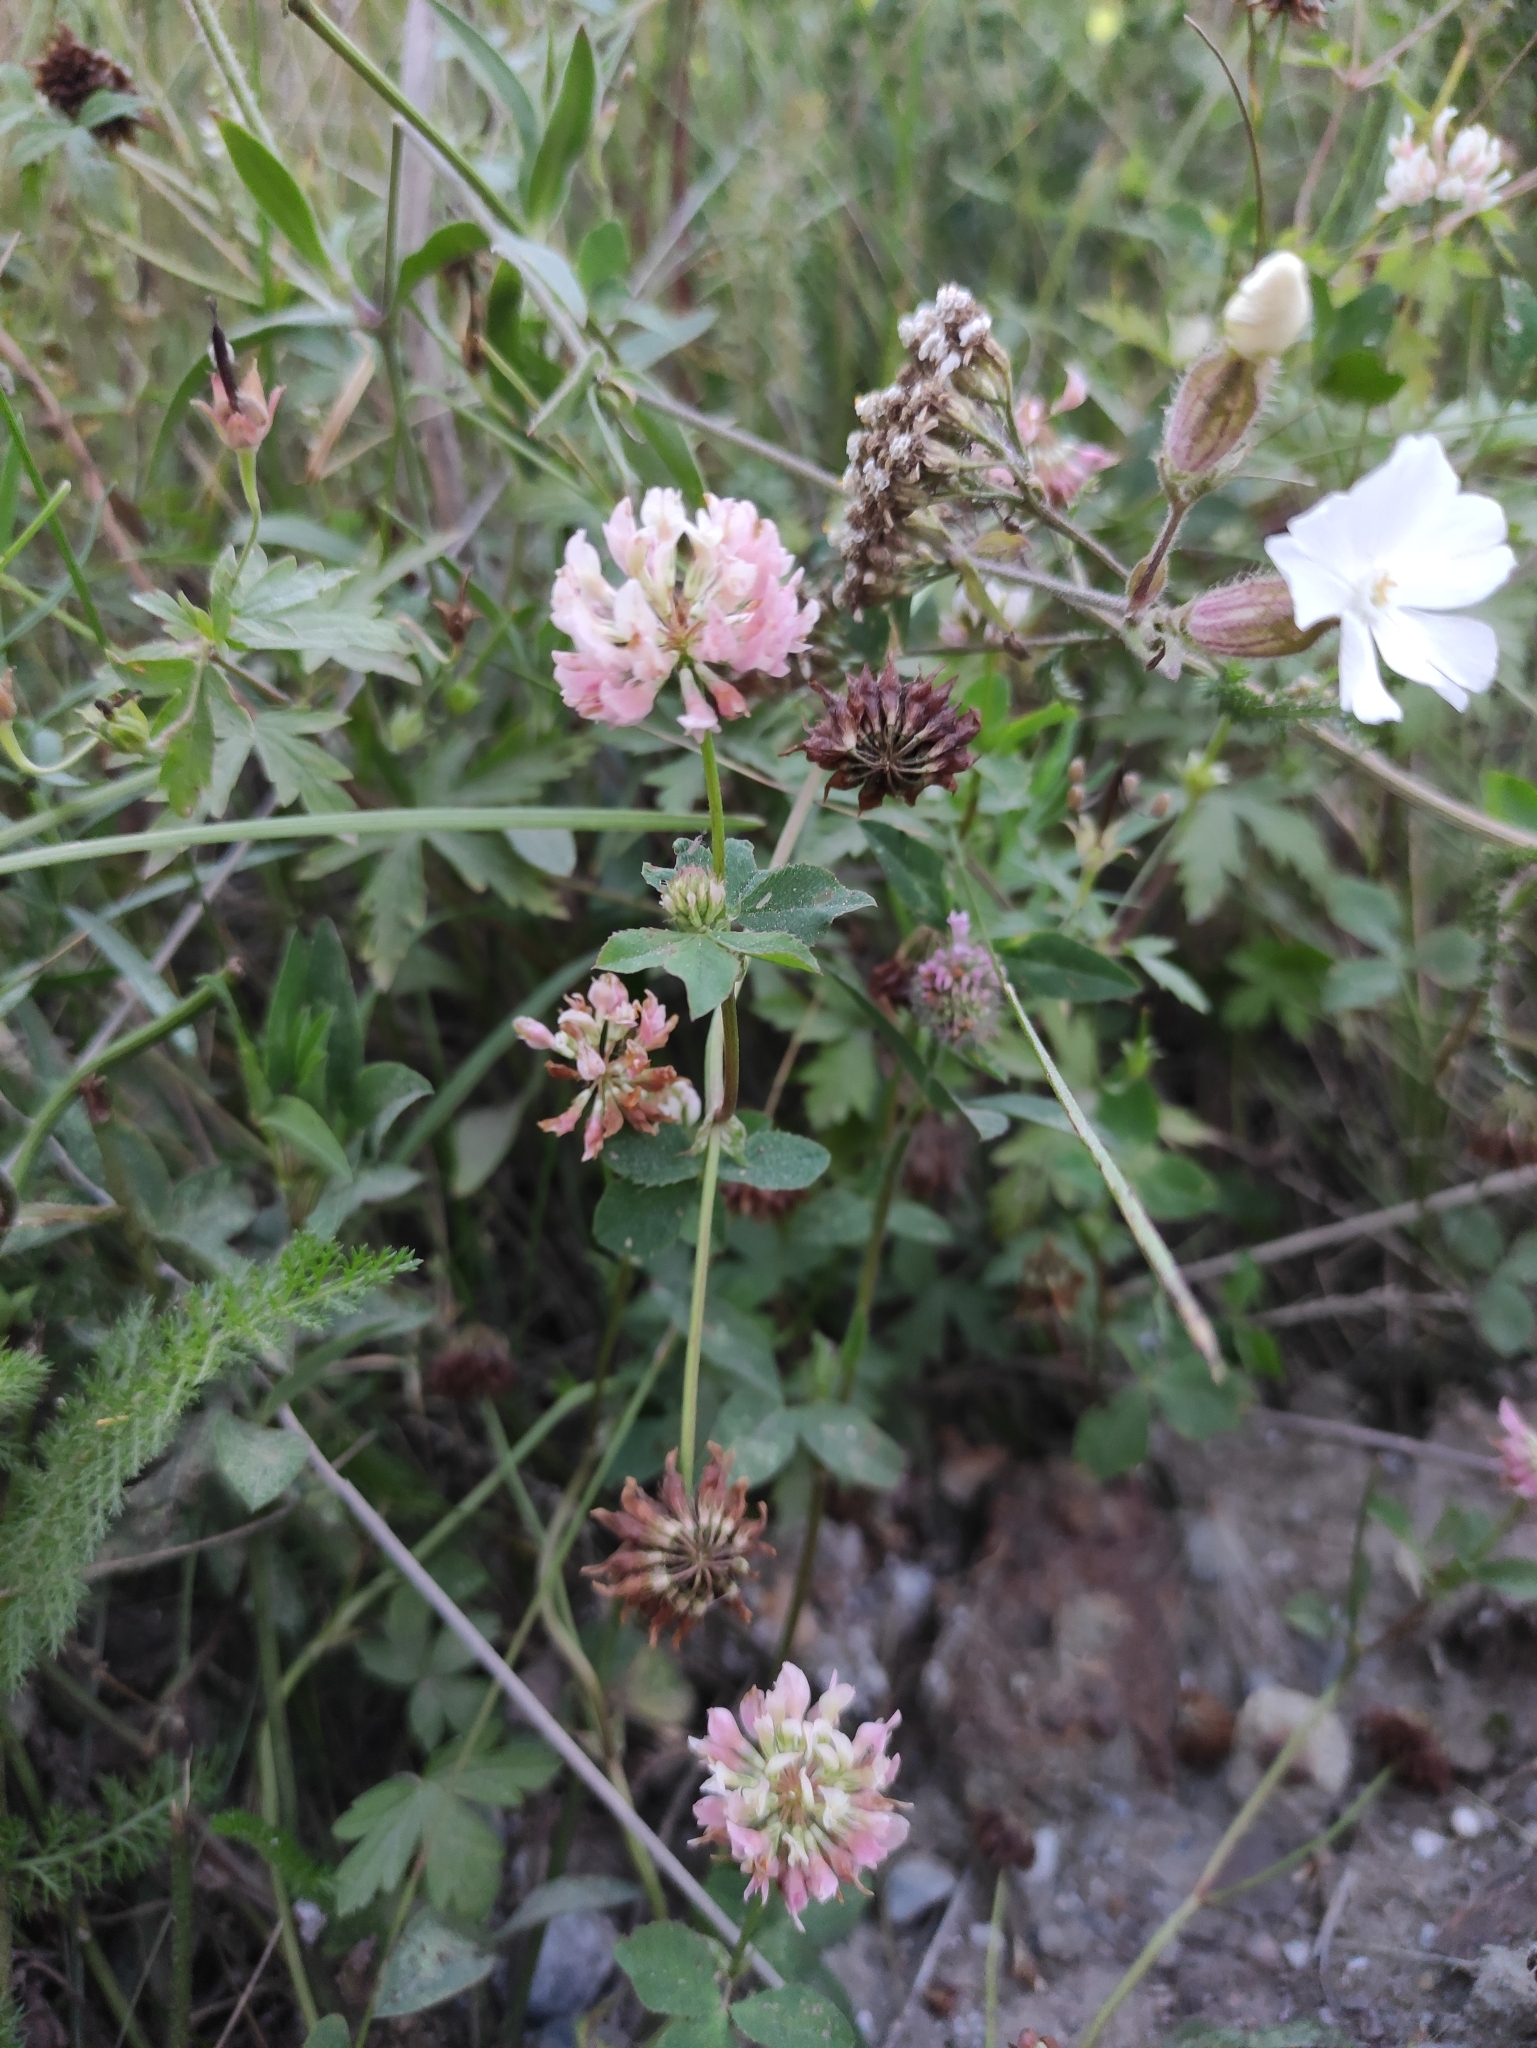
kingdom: Plantae
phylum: Tracheophyta
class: Magnoliopsida
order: Fabales
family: Fabaceae
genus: Trifolium
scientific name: Trifolium hybridum
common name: Alsike clover
